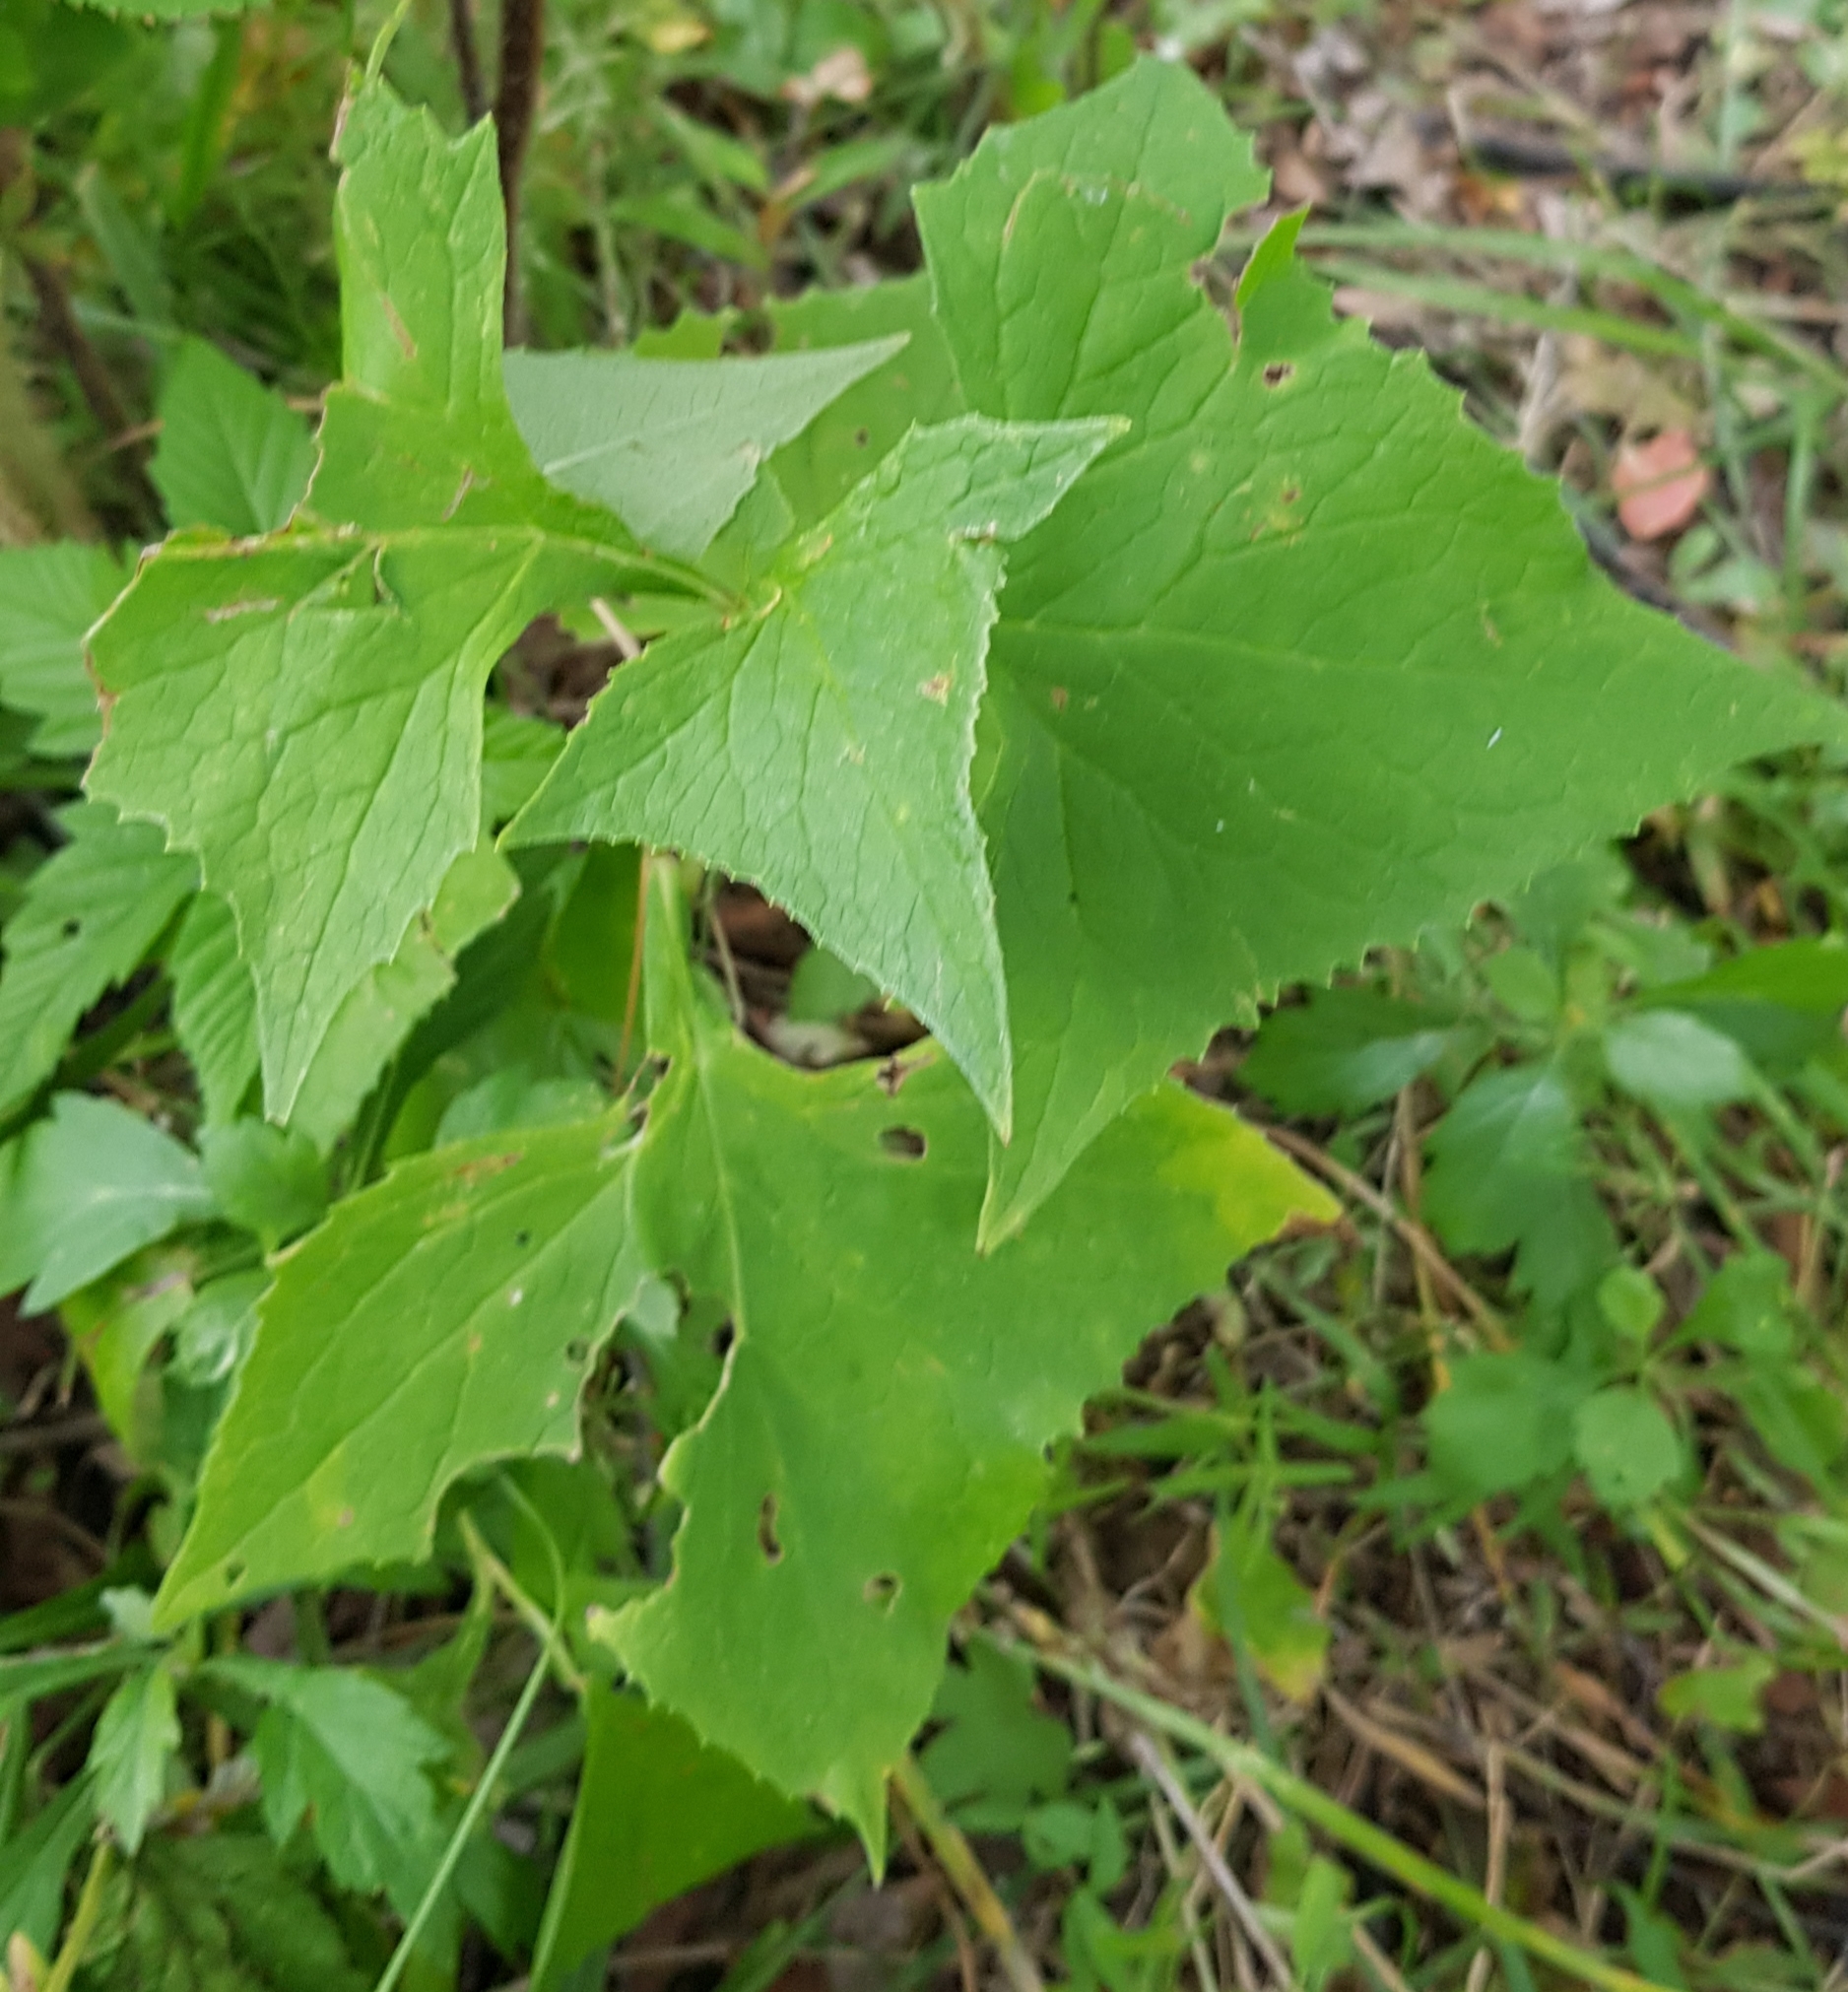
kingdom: Plantae
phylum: Tracheophyta
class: Magnoliopsida
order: Asterales
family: Asteraceae
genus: Parasenecio
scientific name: Parasenecio hastatus
